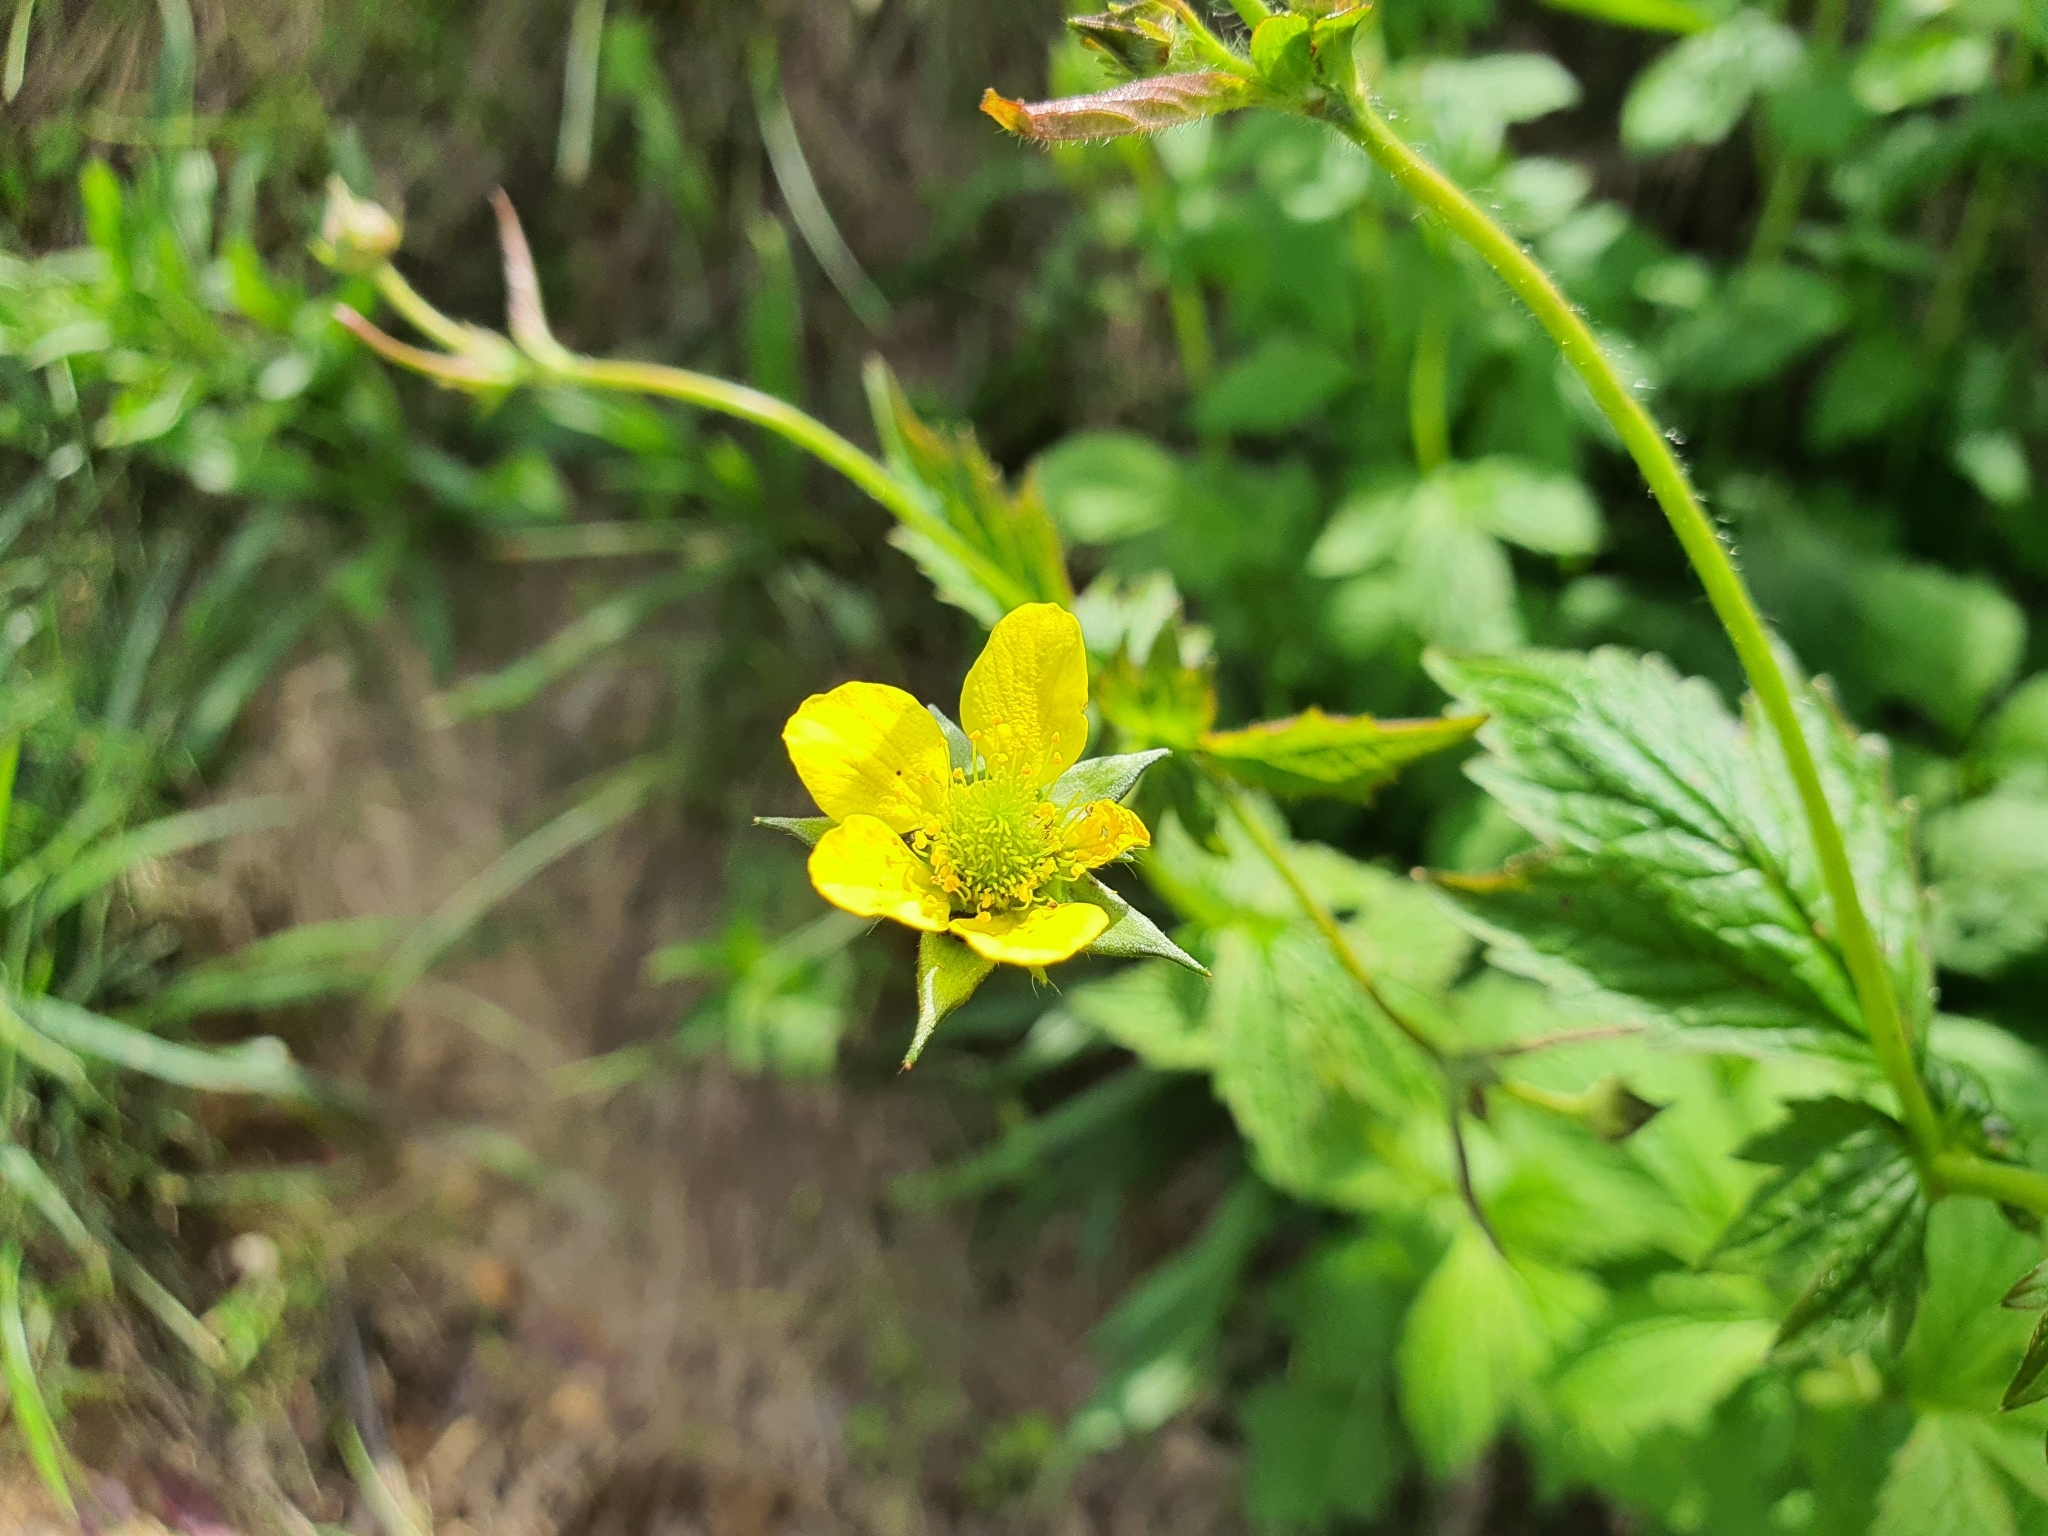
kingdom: Plantae
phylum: Tracheophyta
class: Magnoliopsida
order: Rosales
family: Rosaceae
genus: Geum
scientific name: Geum urbanum
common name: Wood avens
